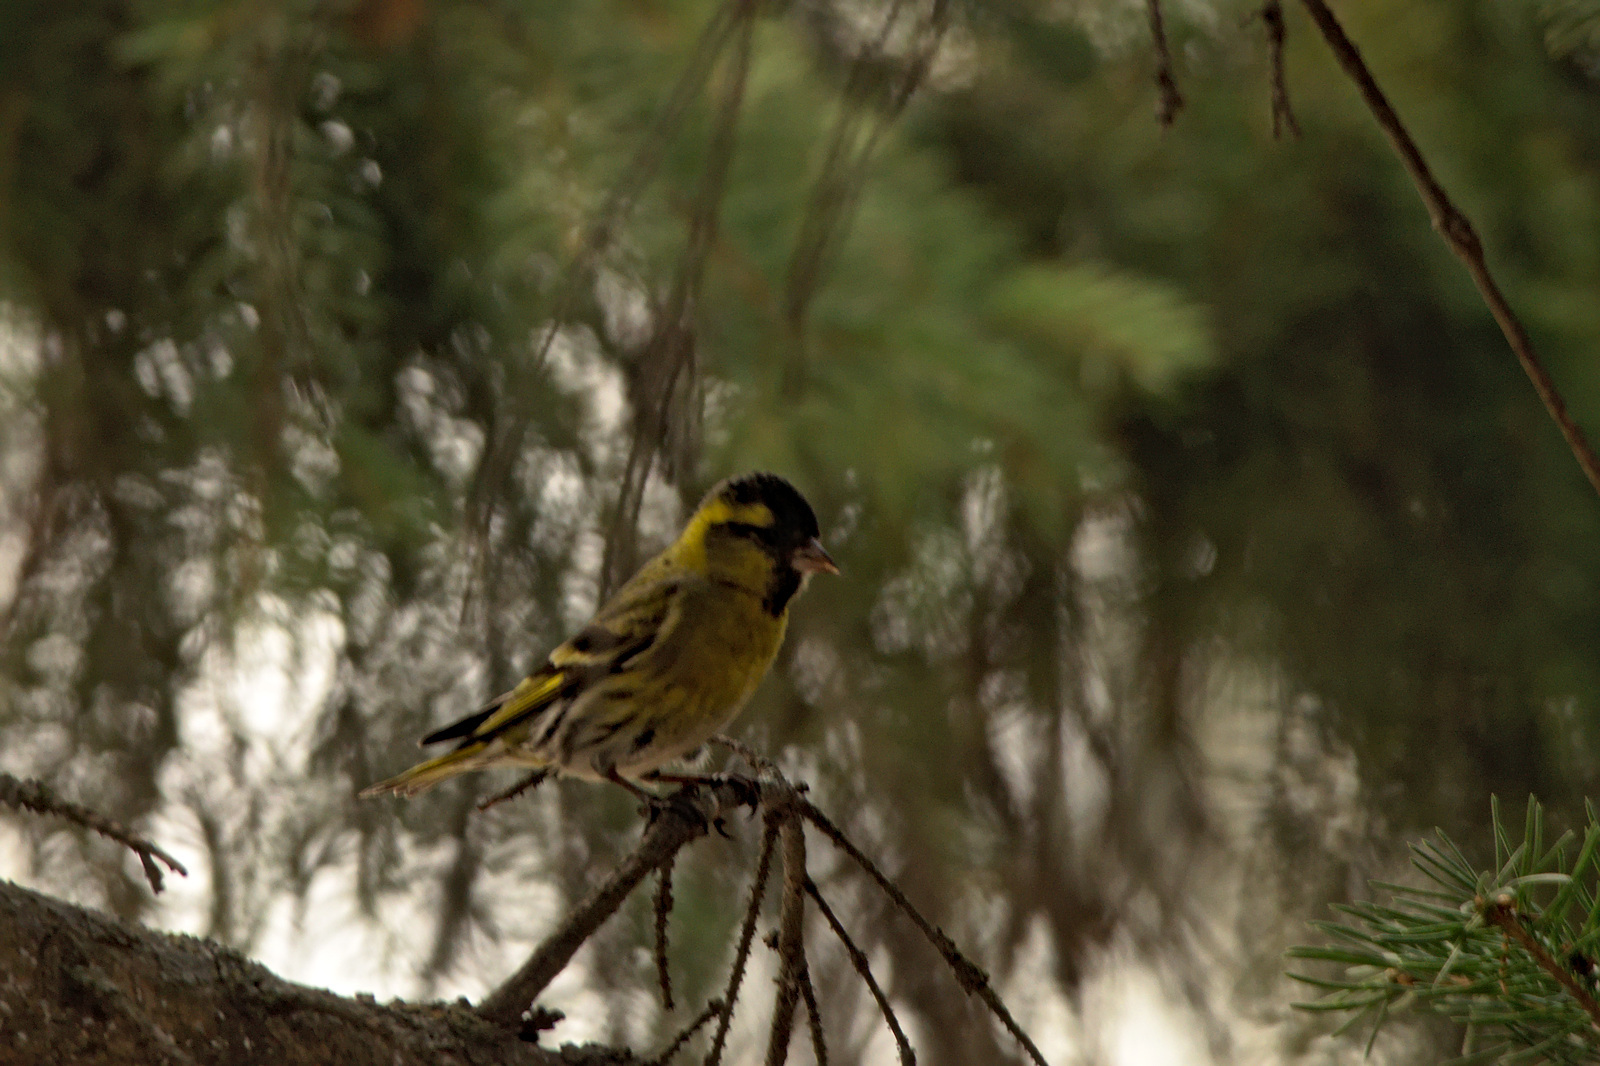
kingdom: Animalia
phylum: Chordata
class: Aves
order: Passeriformes
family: Fringillidae
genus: Spinus
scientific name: Spinus spinus
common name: Eurasian siskin
